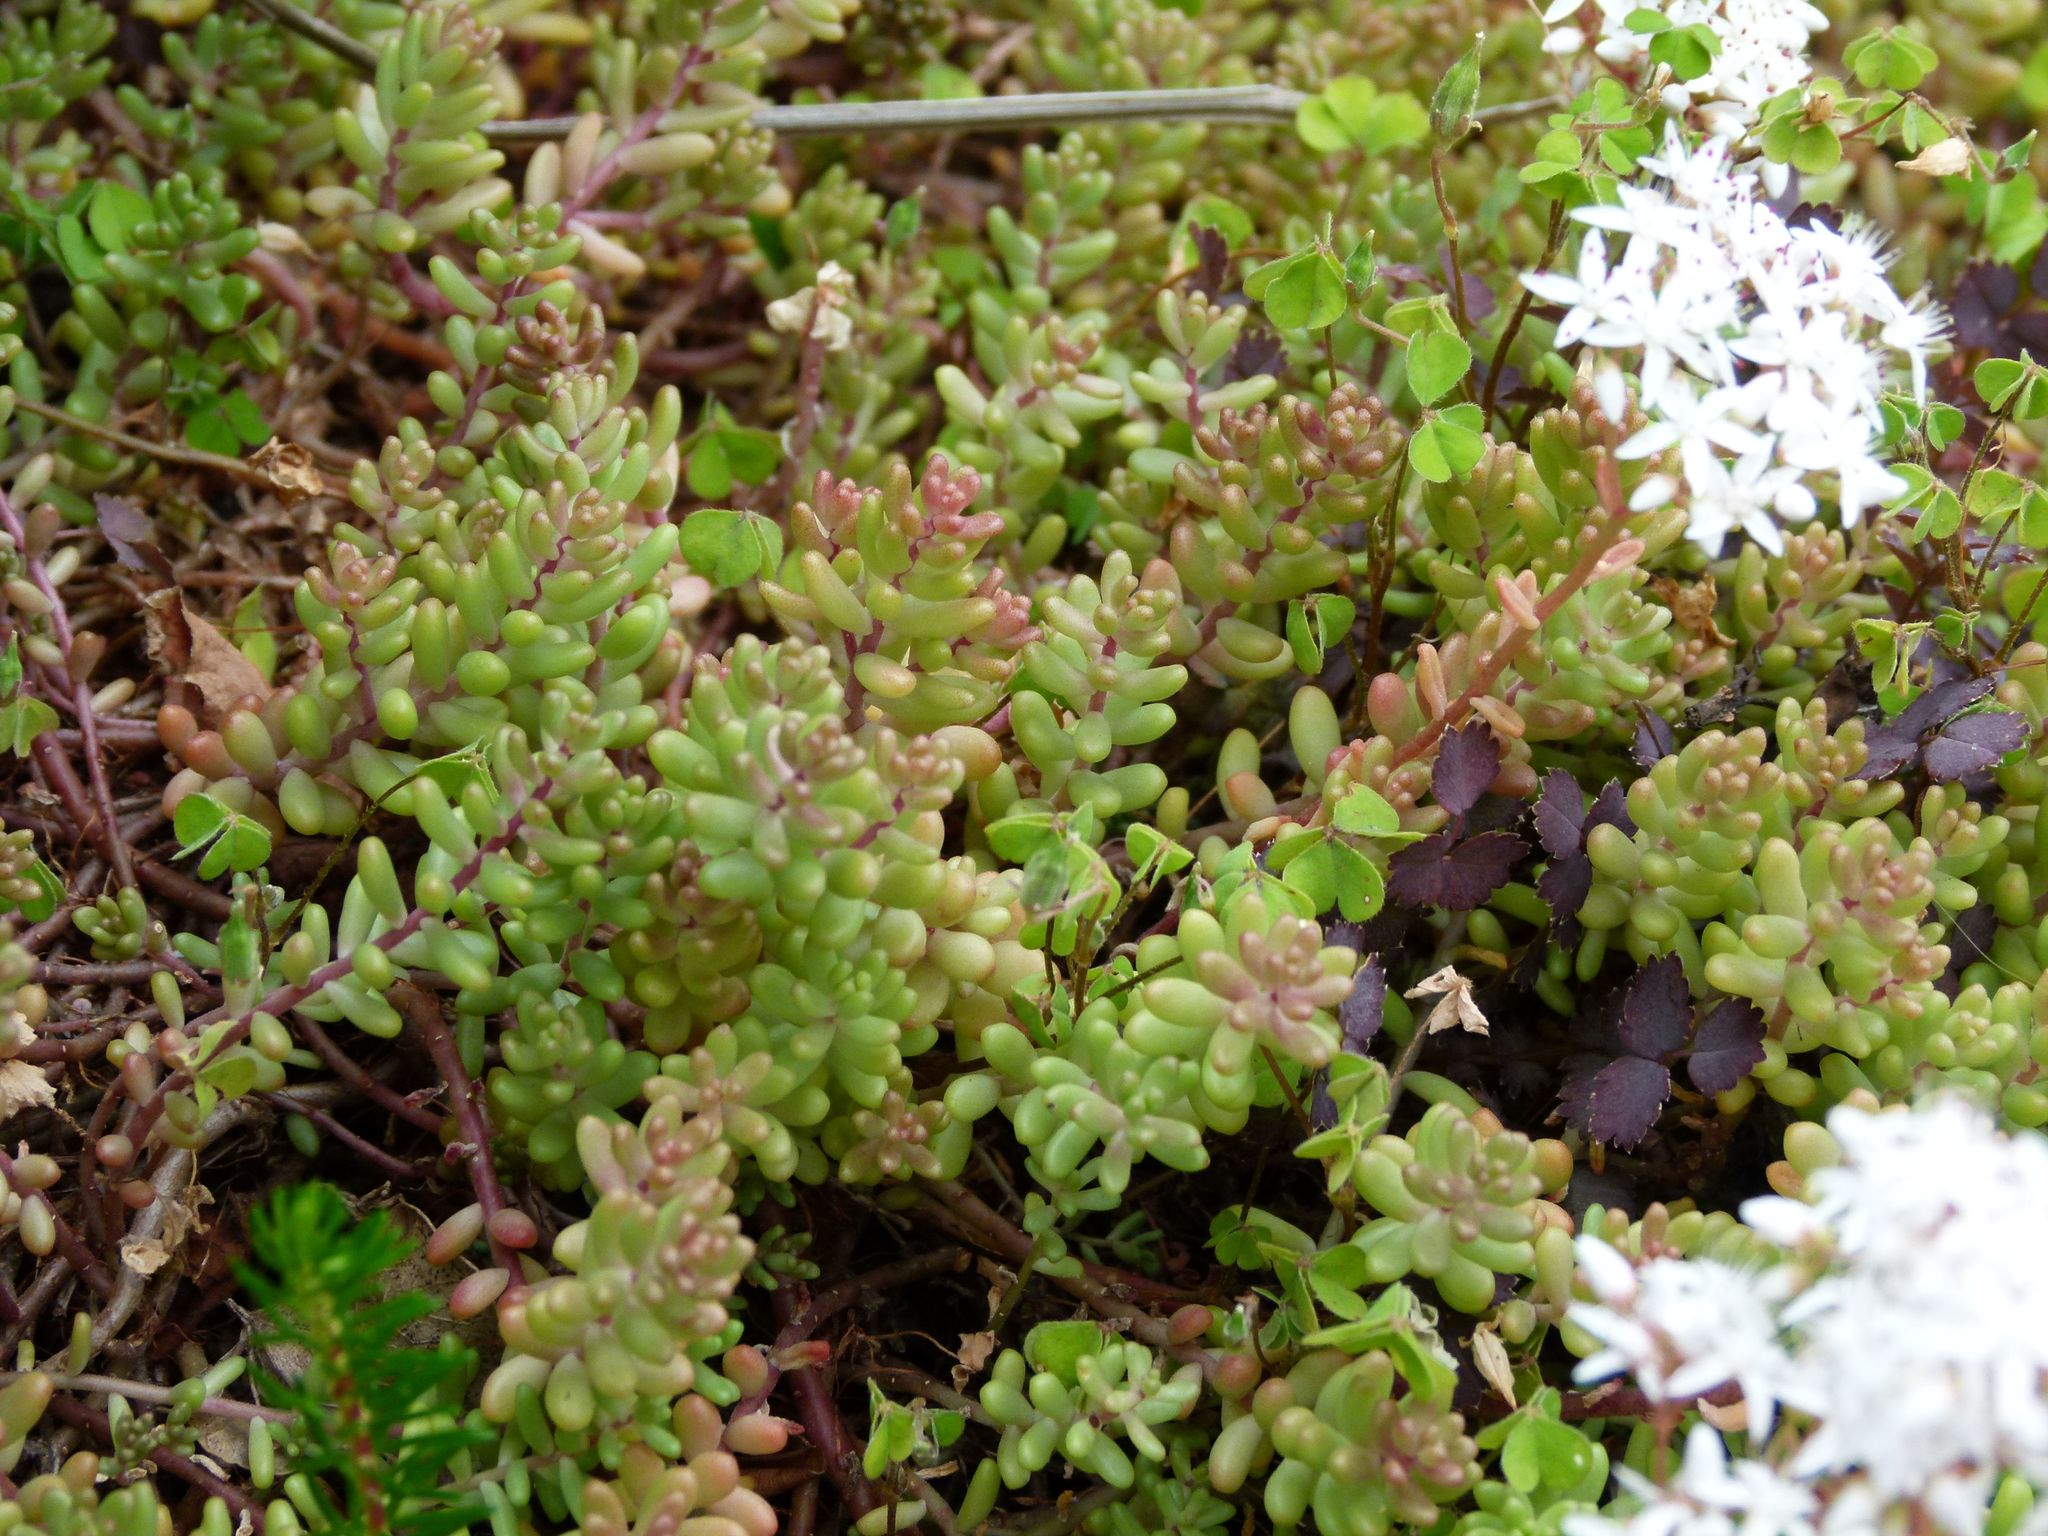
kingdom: Plantae
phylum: Tracheophyta
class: Magnoliopsida
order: Saxifragales
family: Crassulaceae
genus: Sedum
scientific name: Sedum album
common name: White stonecrop
